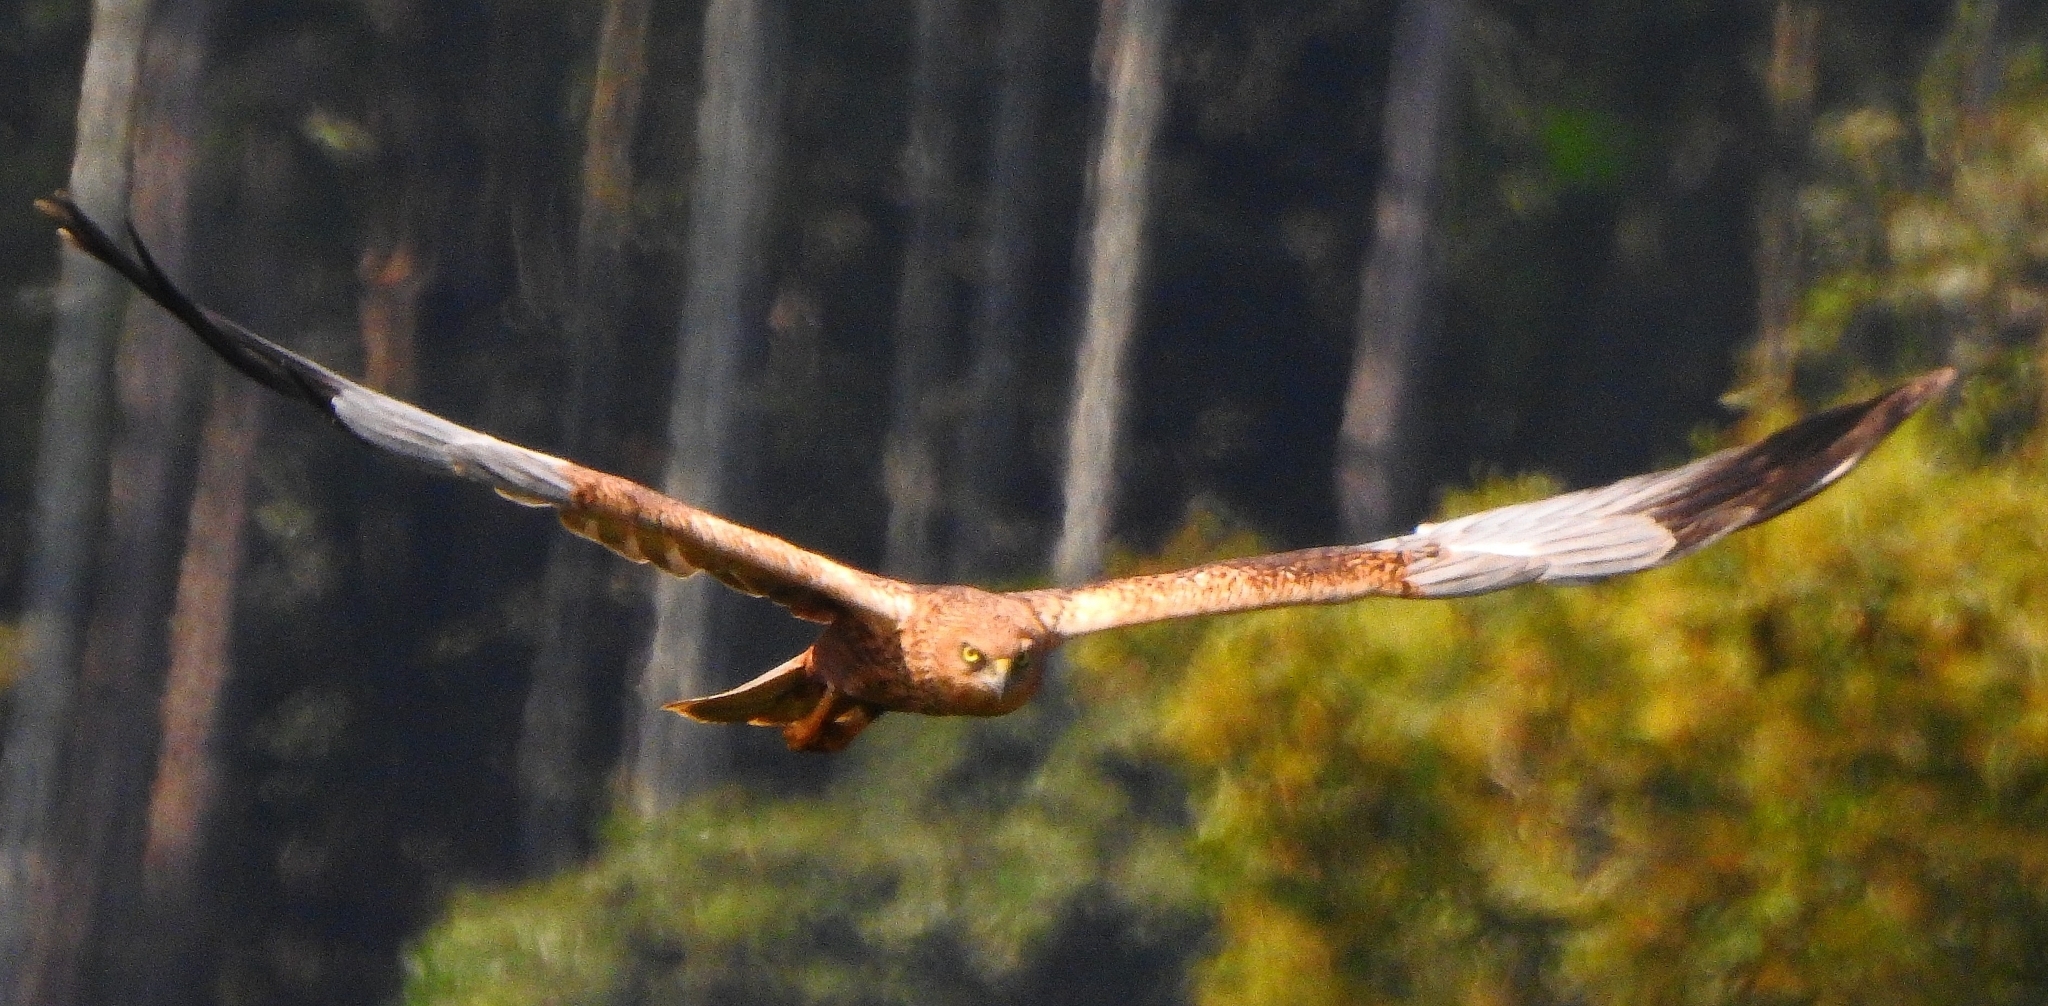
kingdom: Animalia
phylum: Chordata
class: Aves
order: Accipitriformes
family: Accipitridae
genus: Circus
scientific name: Circus aeruginosus
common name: Western marsh harrier
